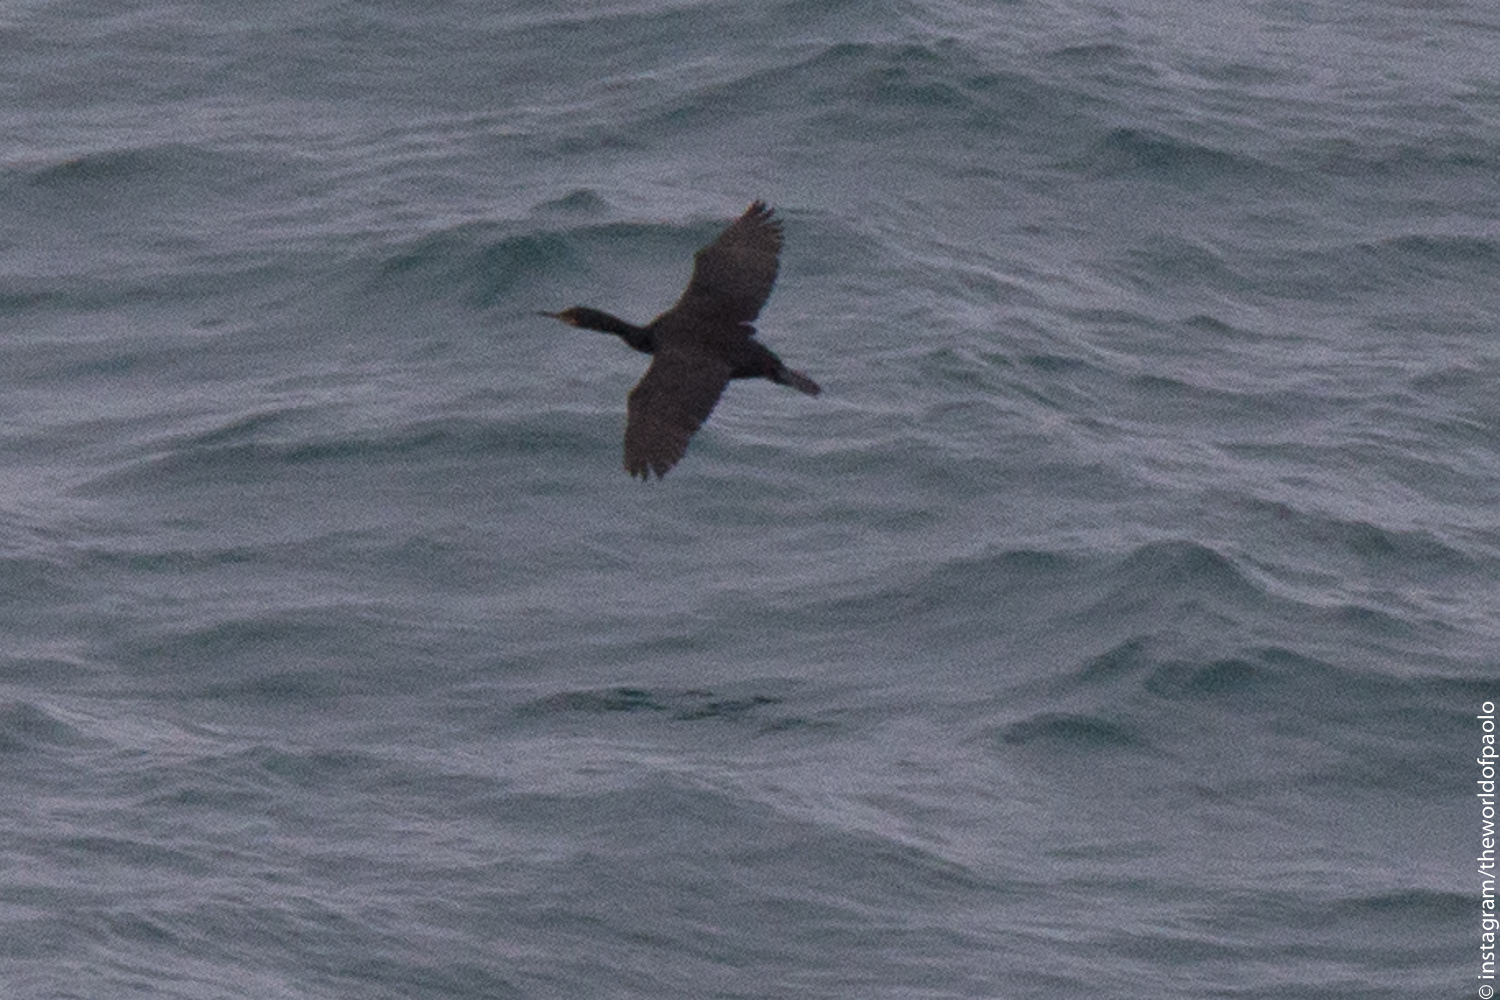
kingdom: Animalia
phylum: Chordata
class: Aves
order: Suliformes
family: Phalacrocoracidae
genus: Phalacrocorax
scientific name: Phalacrocorax aristotelis
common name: European shag
